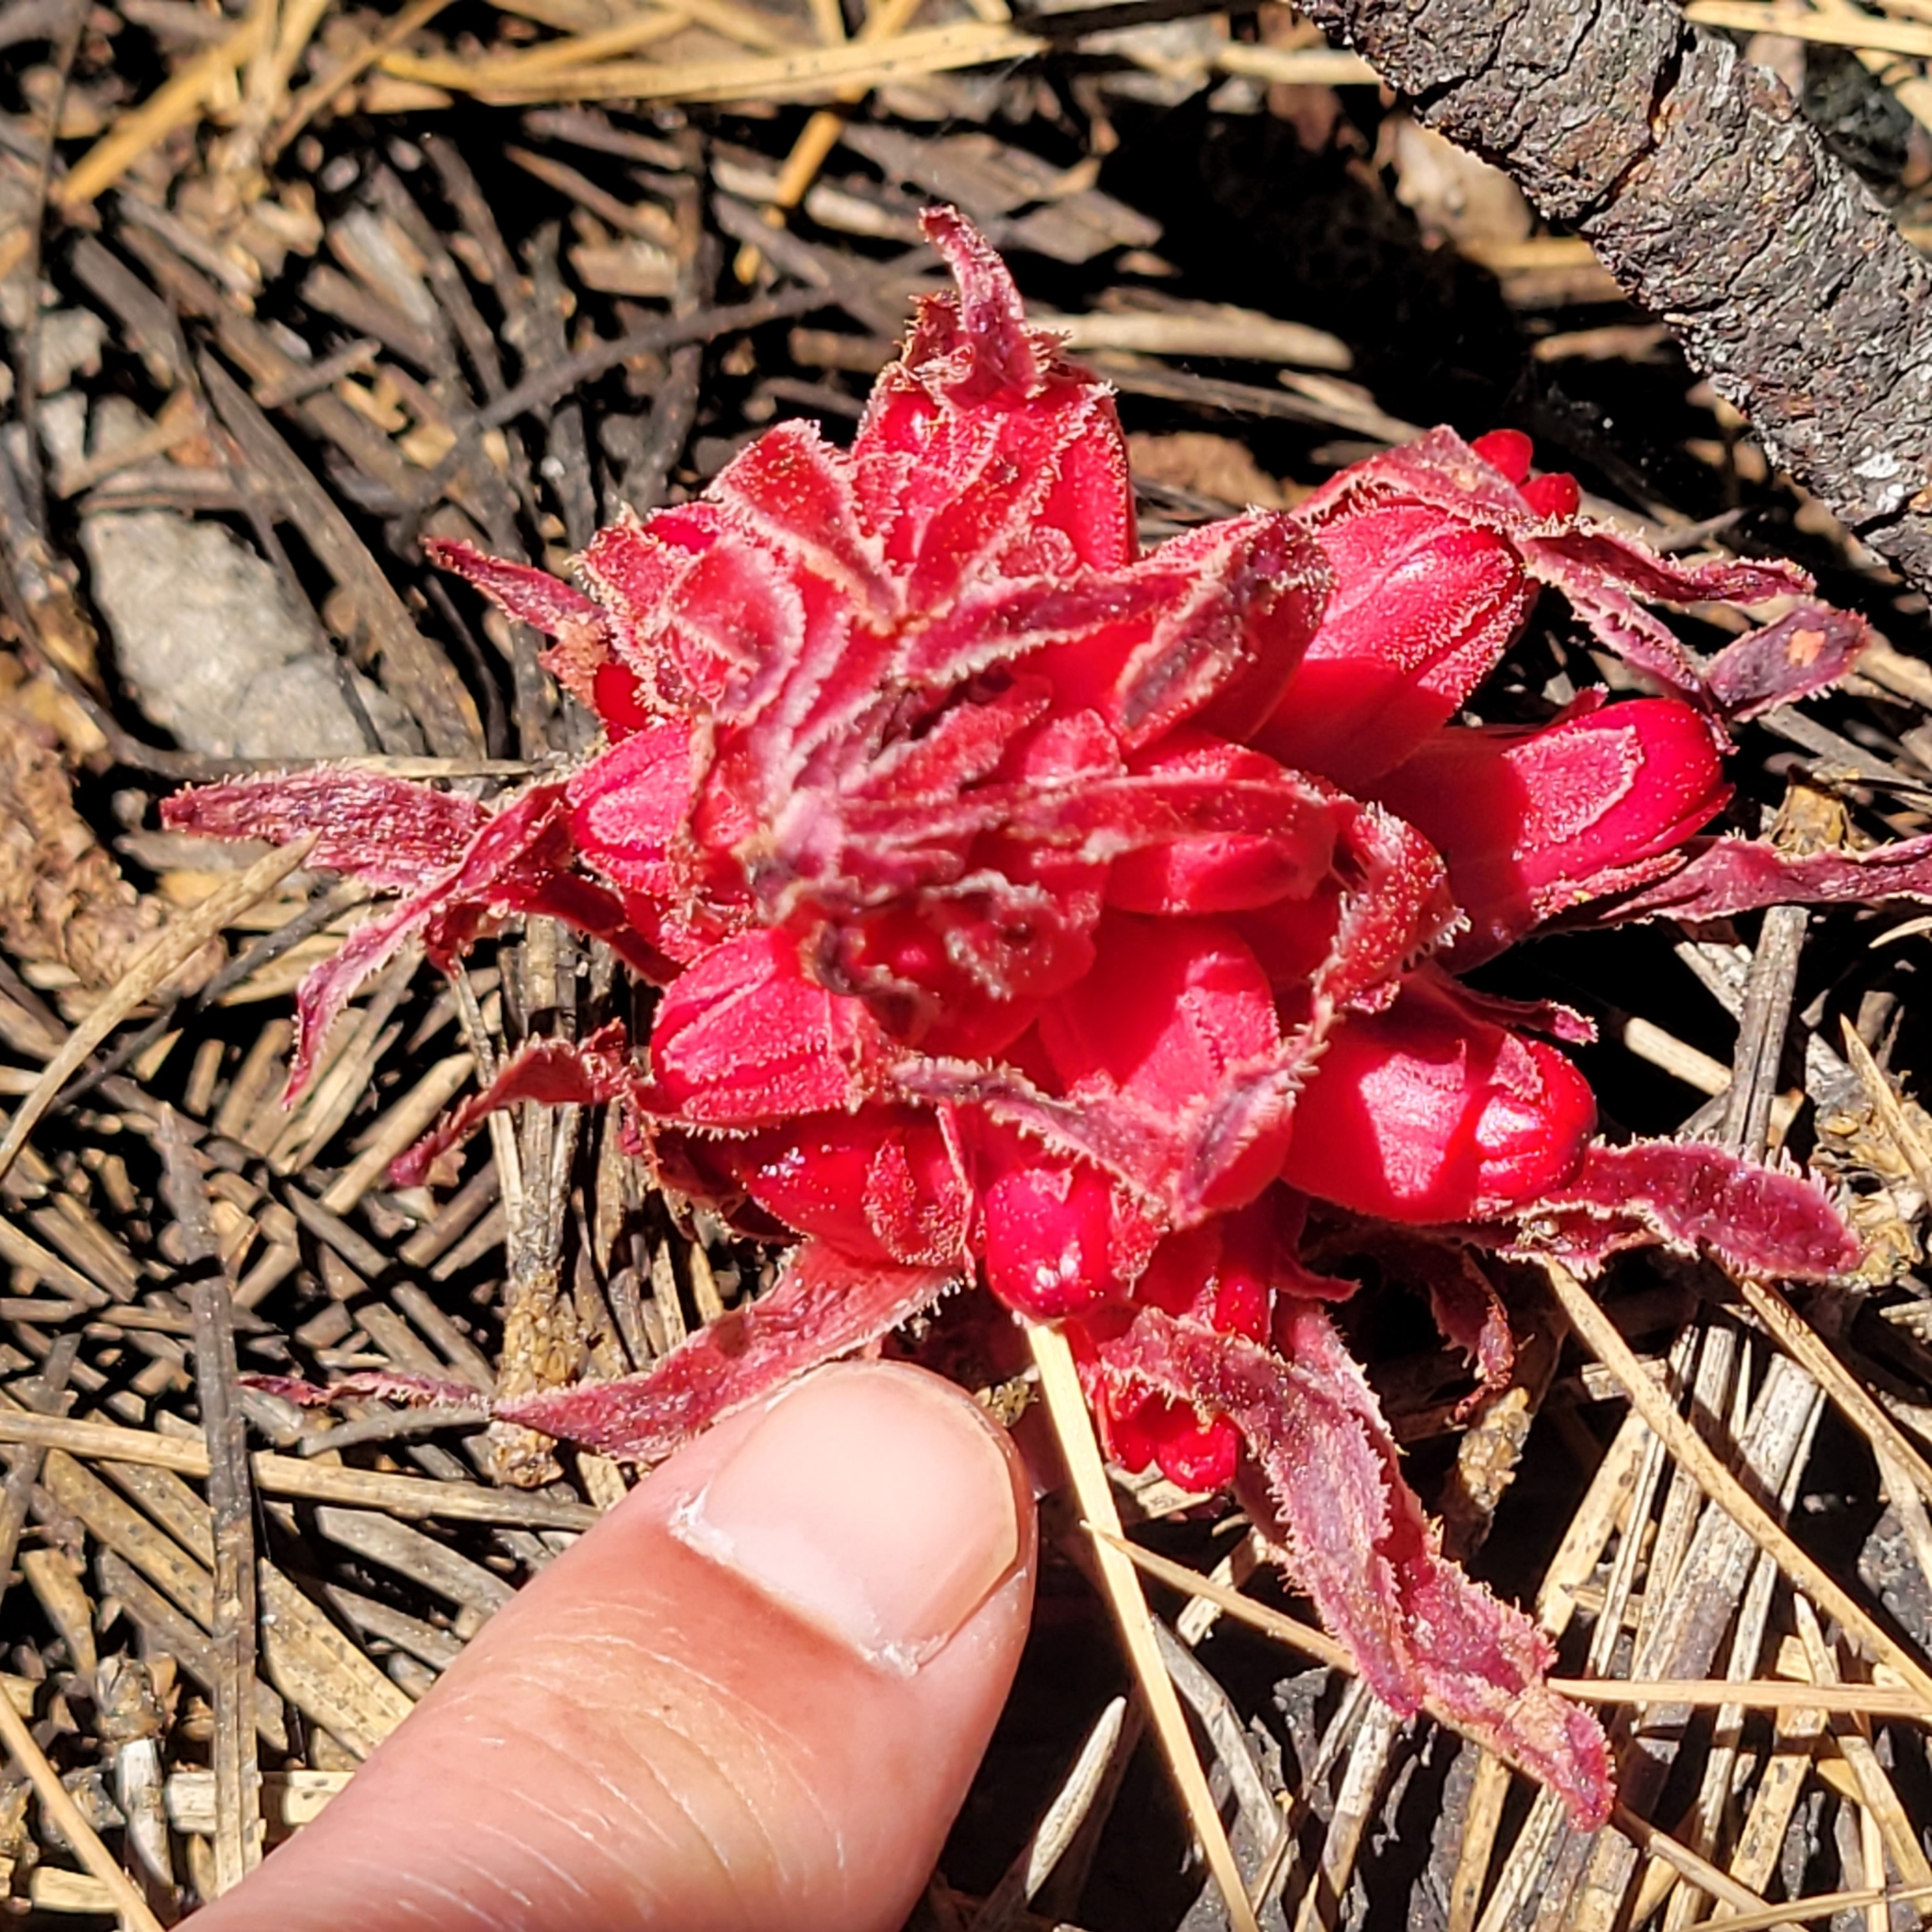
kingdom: Plantae
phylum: Tracheophyta
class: Magnoliopsida
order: Ericales
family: Ericaceae
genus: Sarcodes
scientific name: Sarcodes sanguinea
